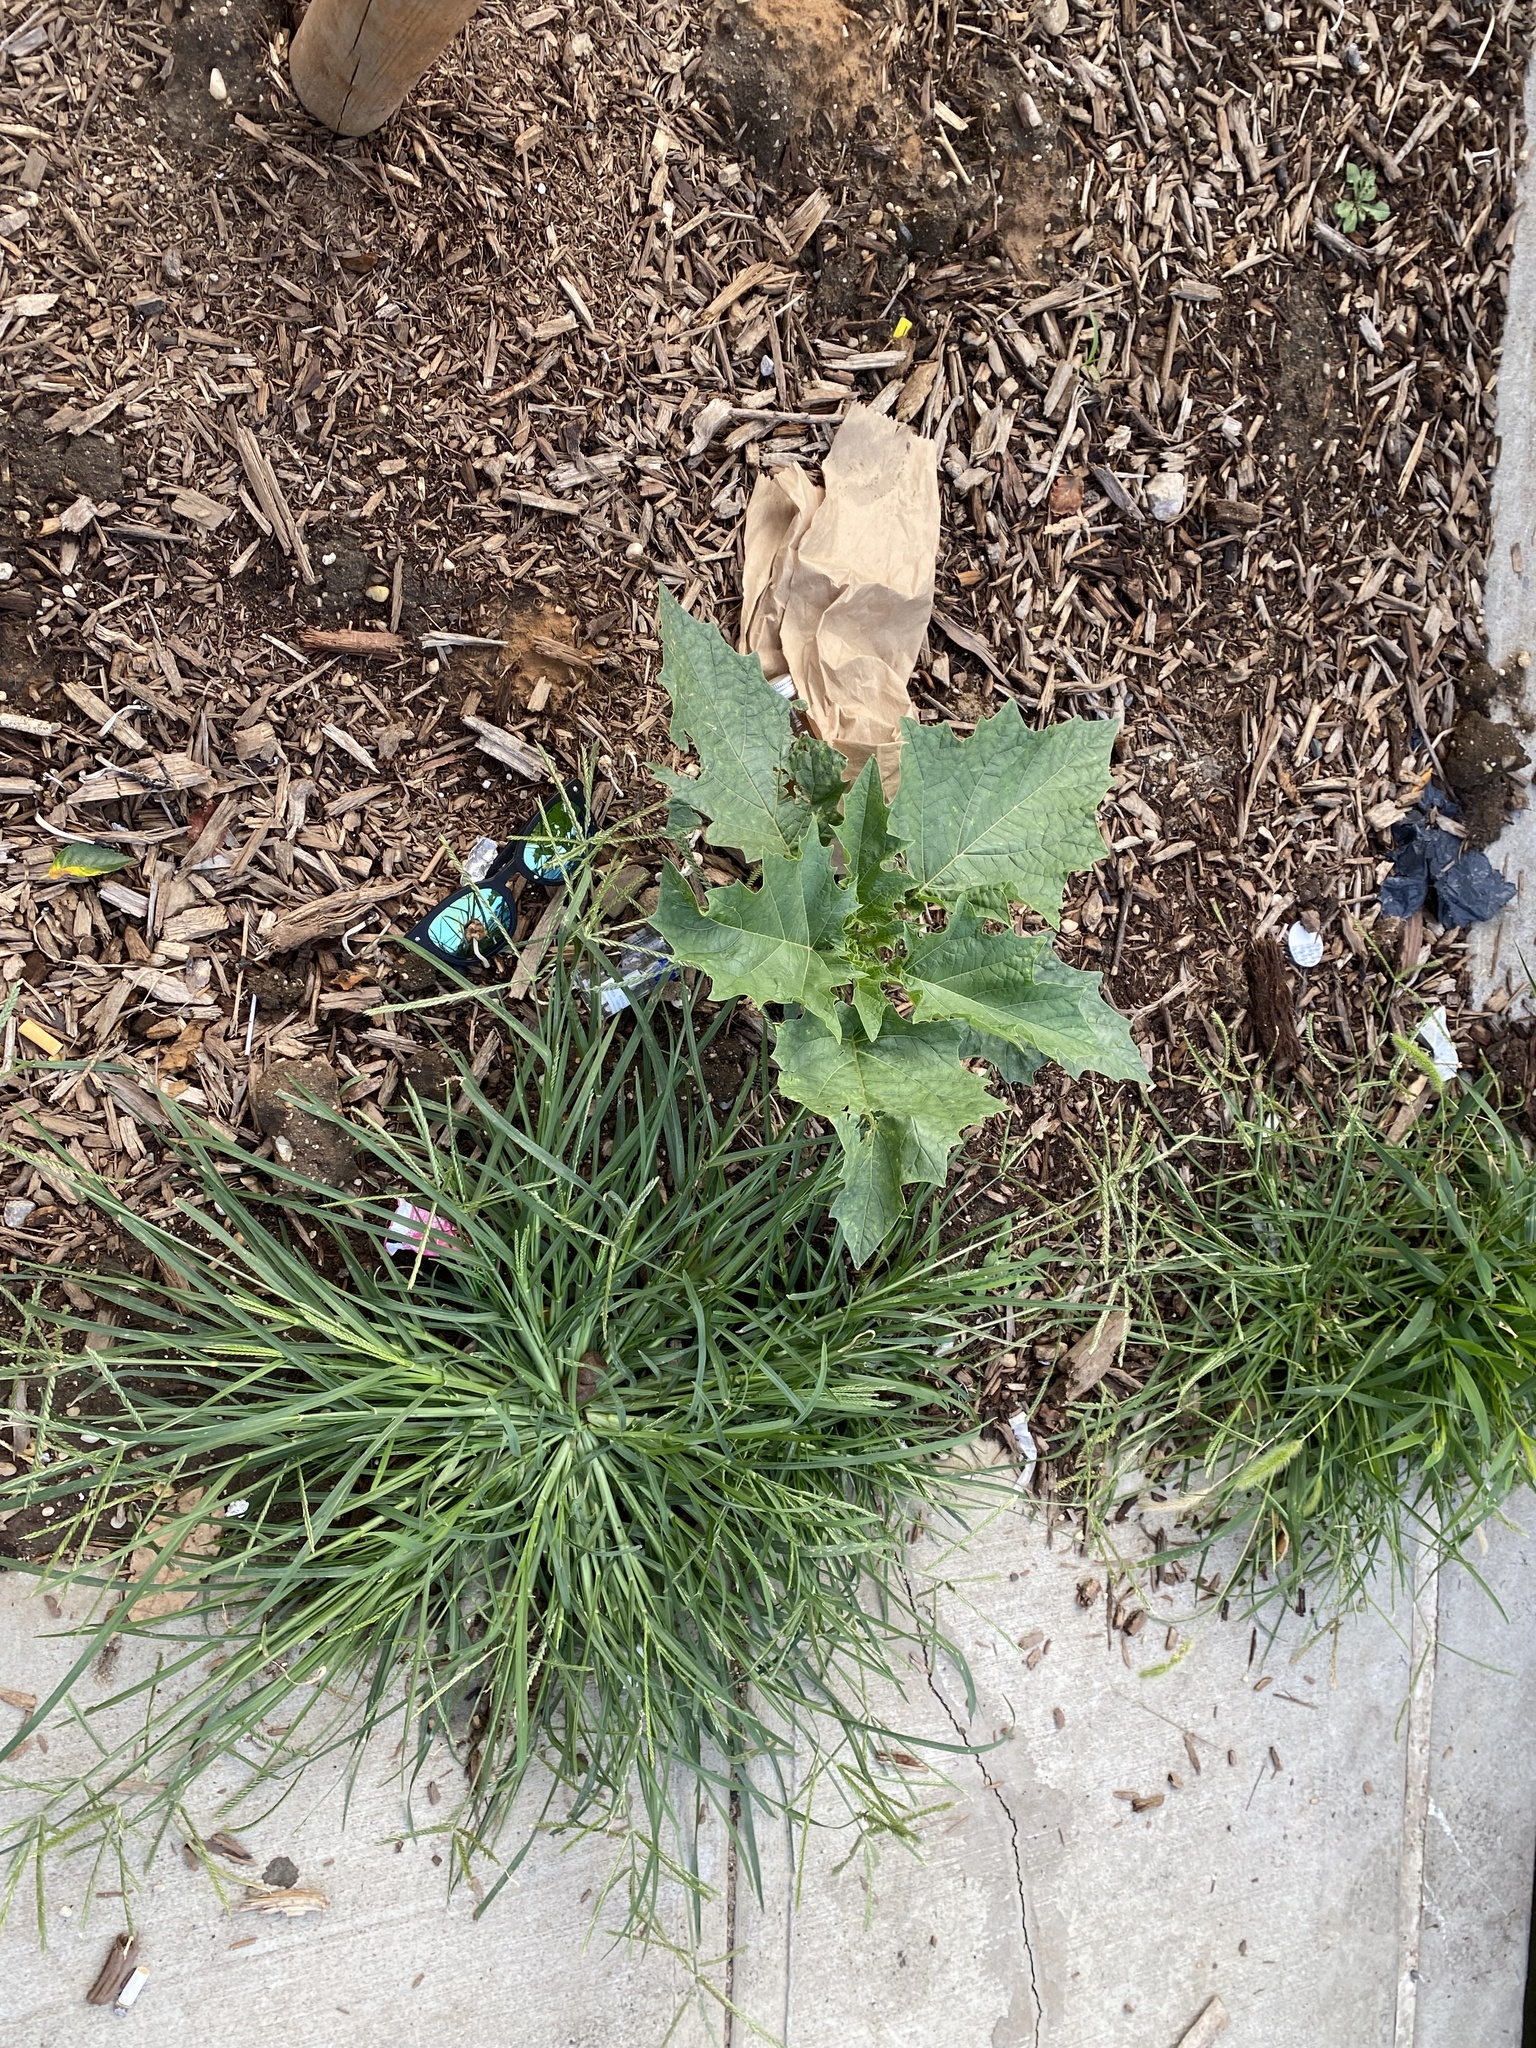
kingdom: Plantae
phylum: Tracheophyta
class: Magnoliopsida
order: Solanales
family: Solanaceae
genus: Datura
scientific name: Datura stramonium
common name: Thorn-apple
